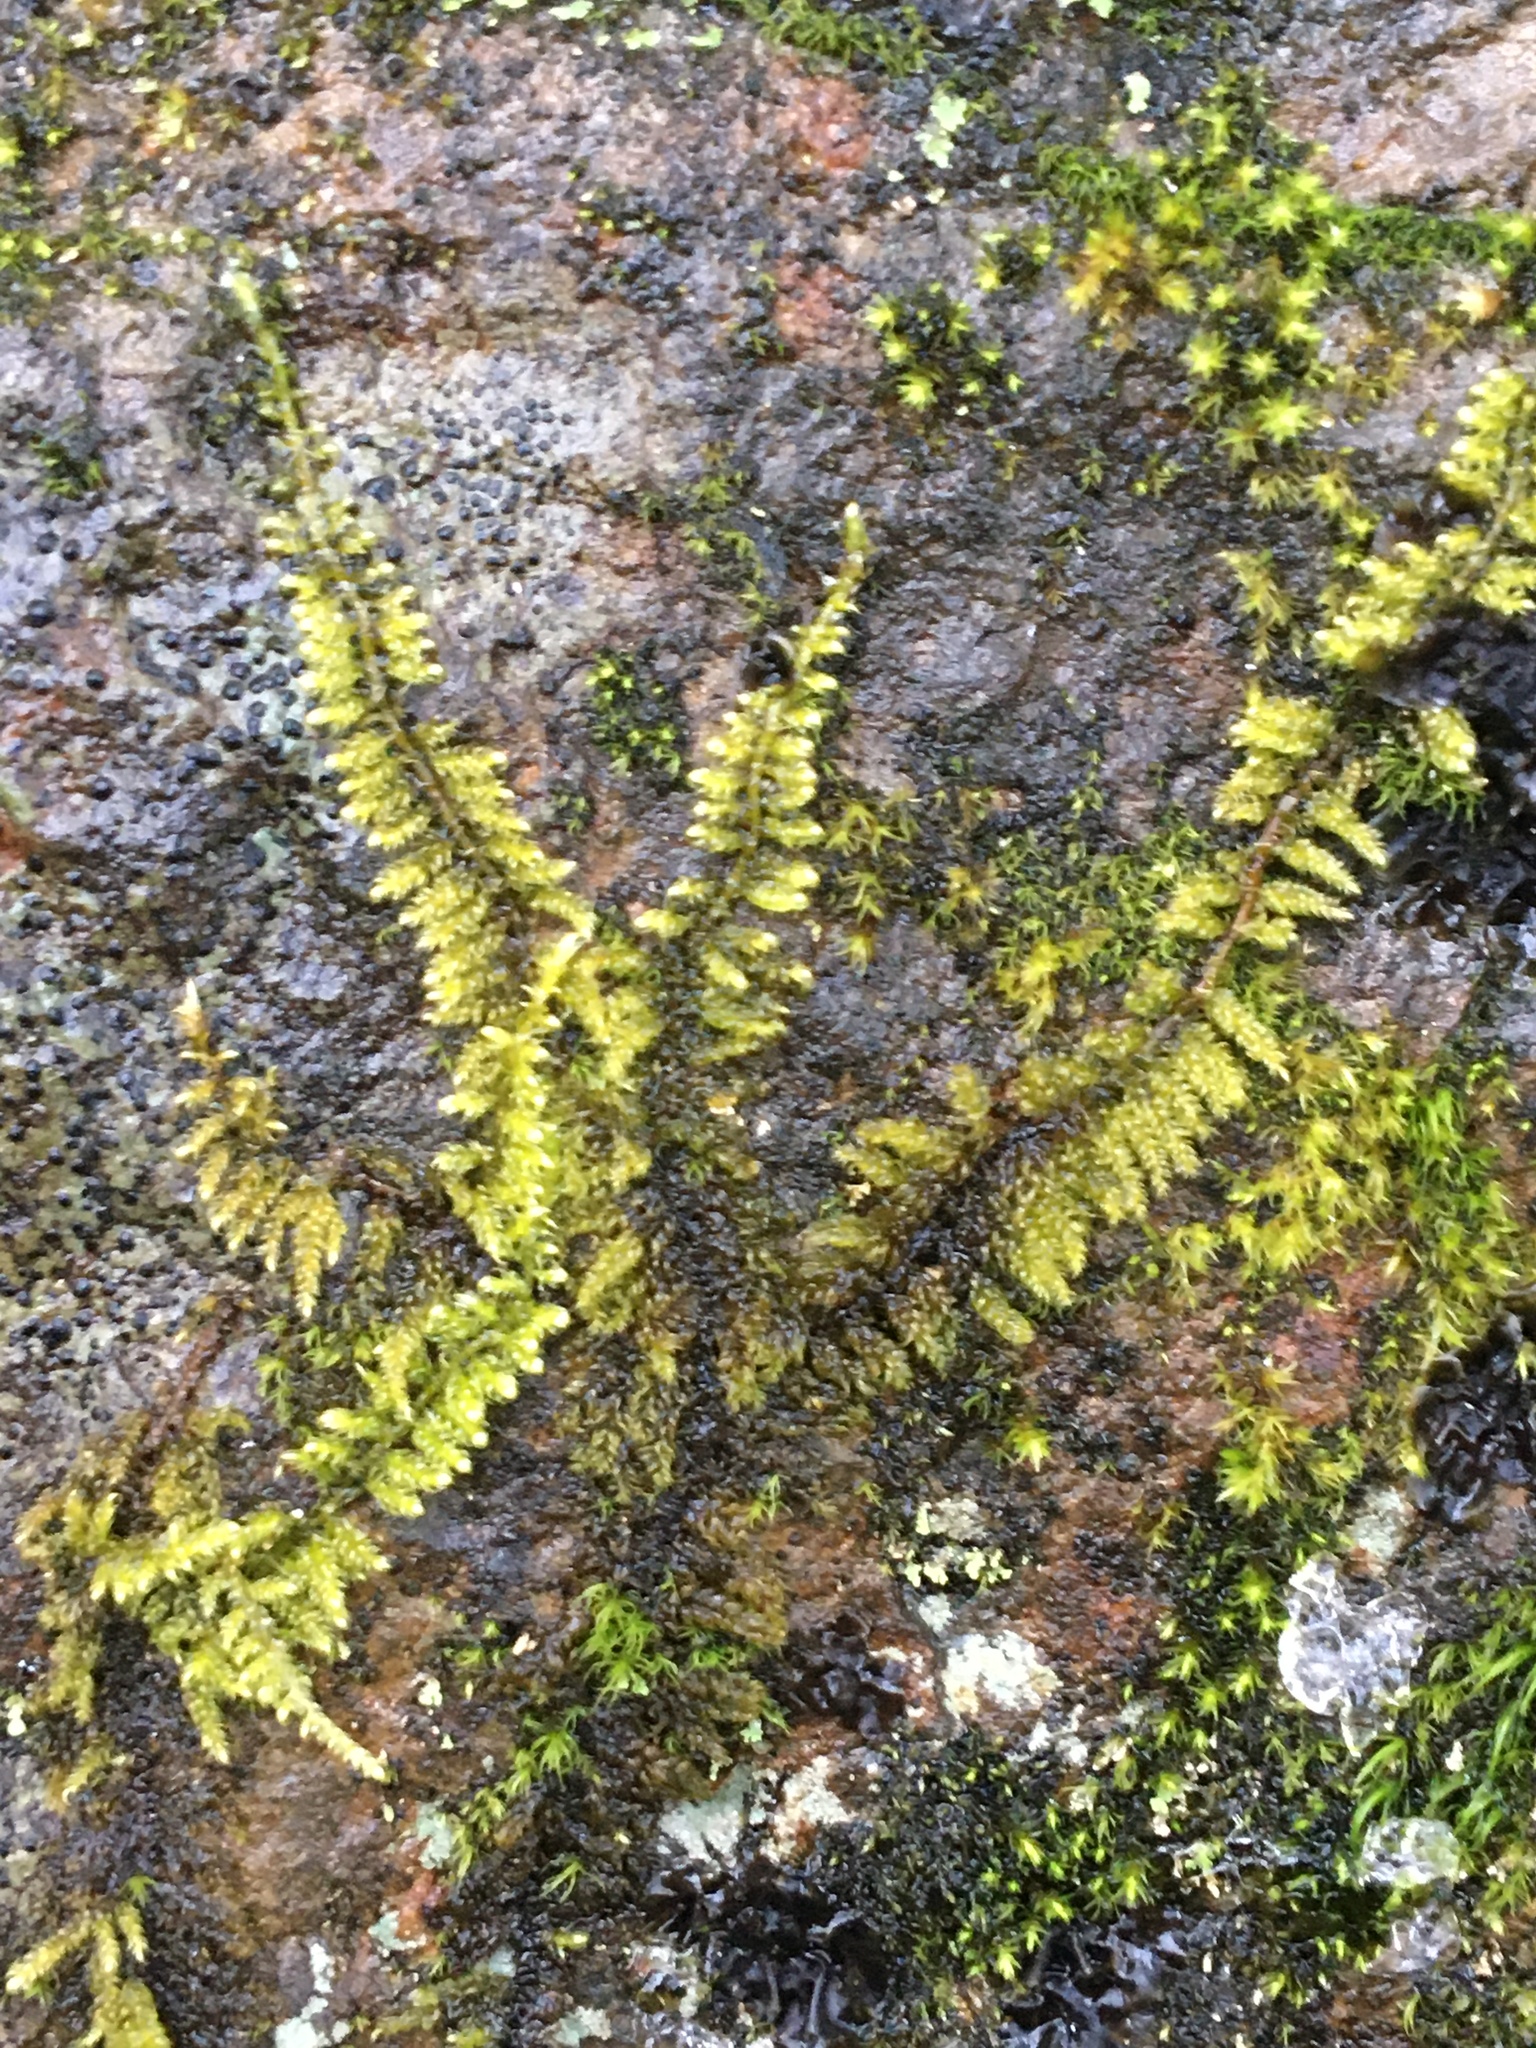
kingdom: Plantae
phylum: Bryophyta
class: Bryopsida
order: Hypnales
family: Callicladiaceae
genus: Callicladium
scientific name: Callicladium imponens
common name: Brocade moss
